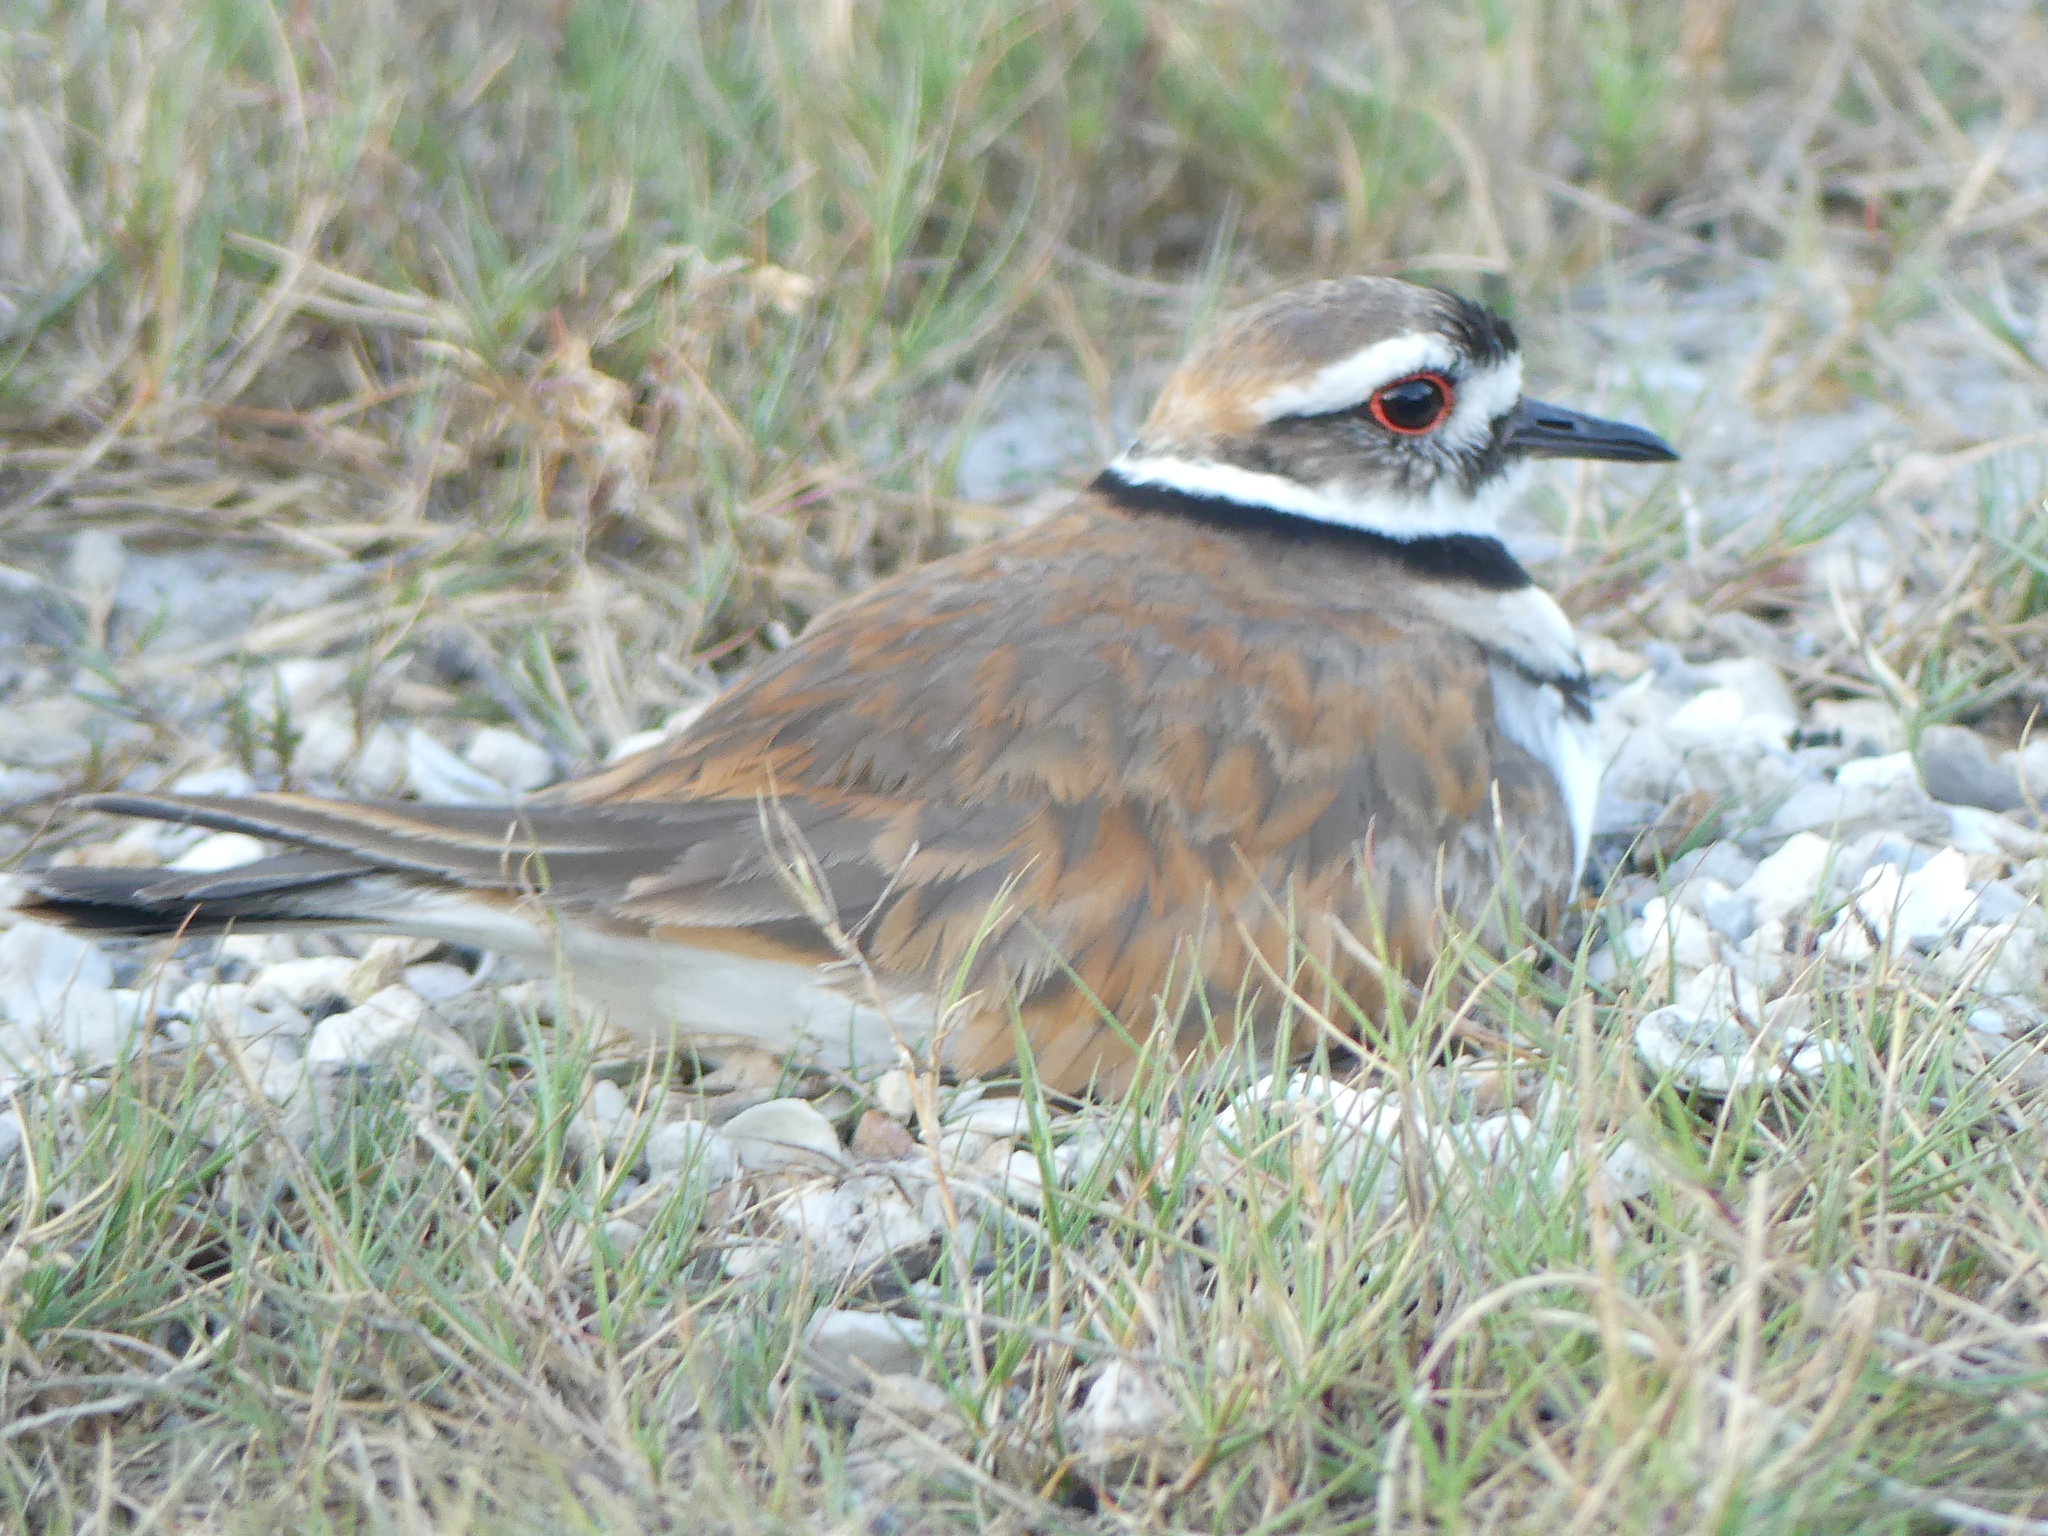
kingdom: Animalia
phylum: Chordata
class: Aves
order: Charadriiformes
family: Charadriidae
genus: Charadrius
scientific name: Charadrius vociferus
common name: Killdeer
